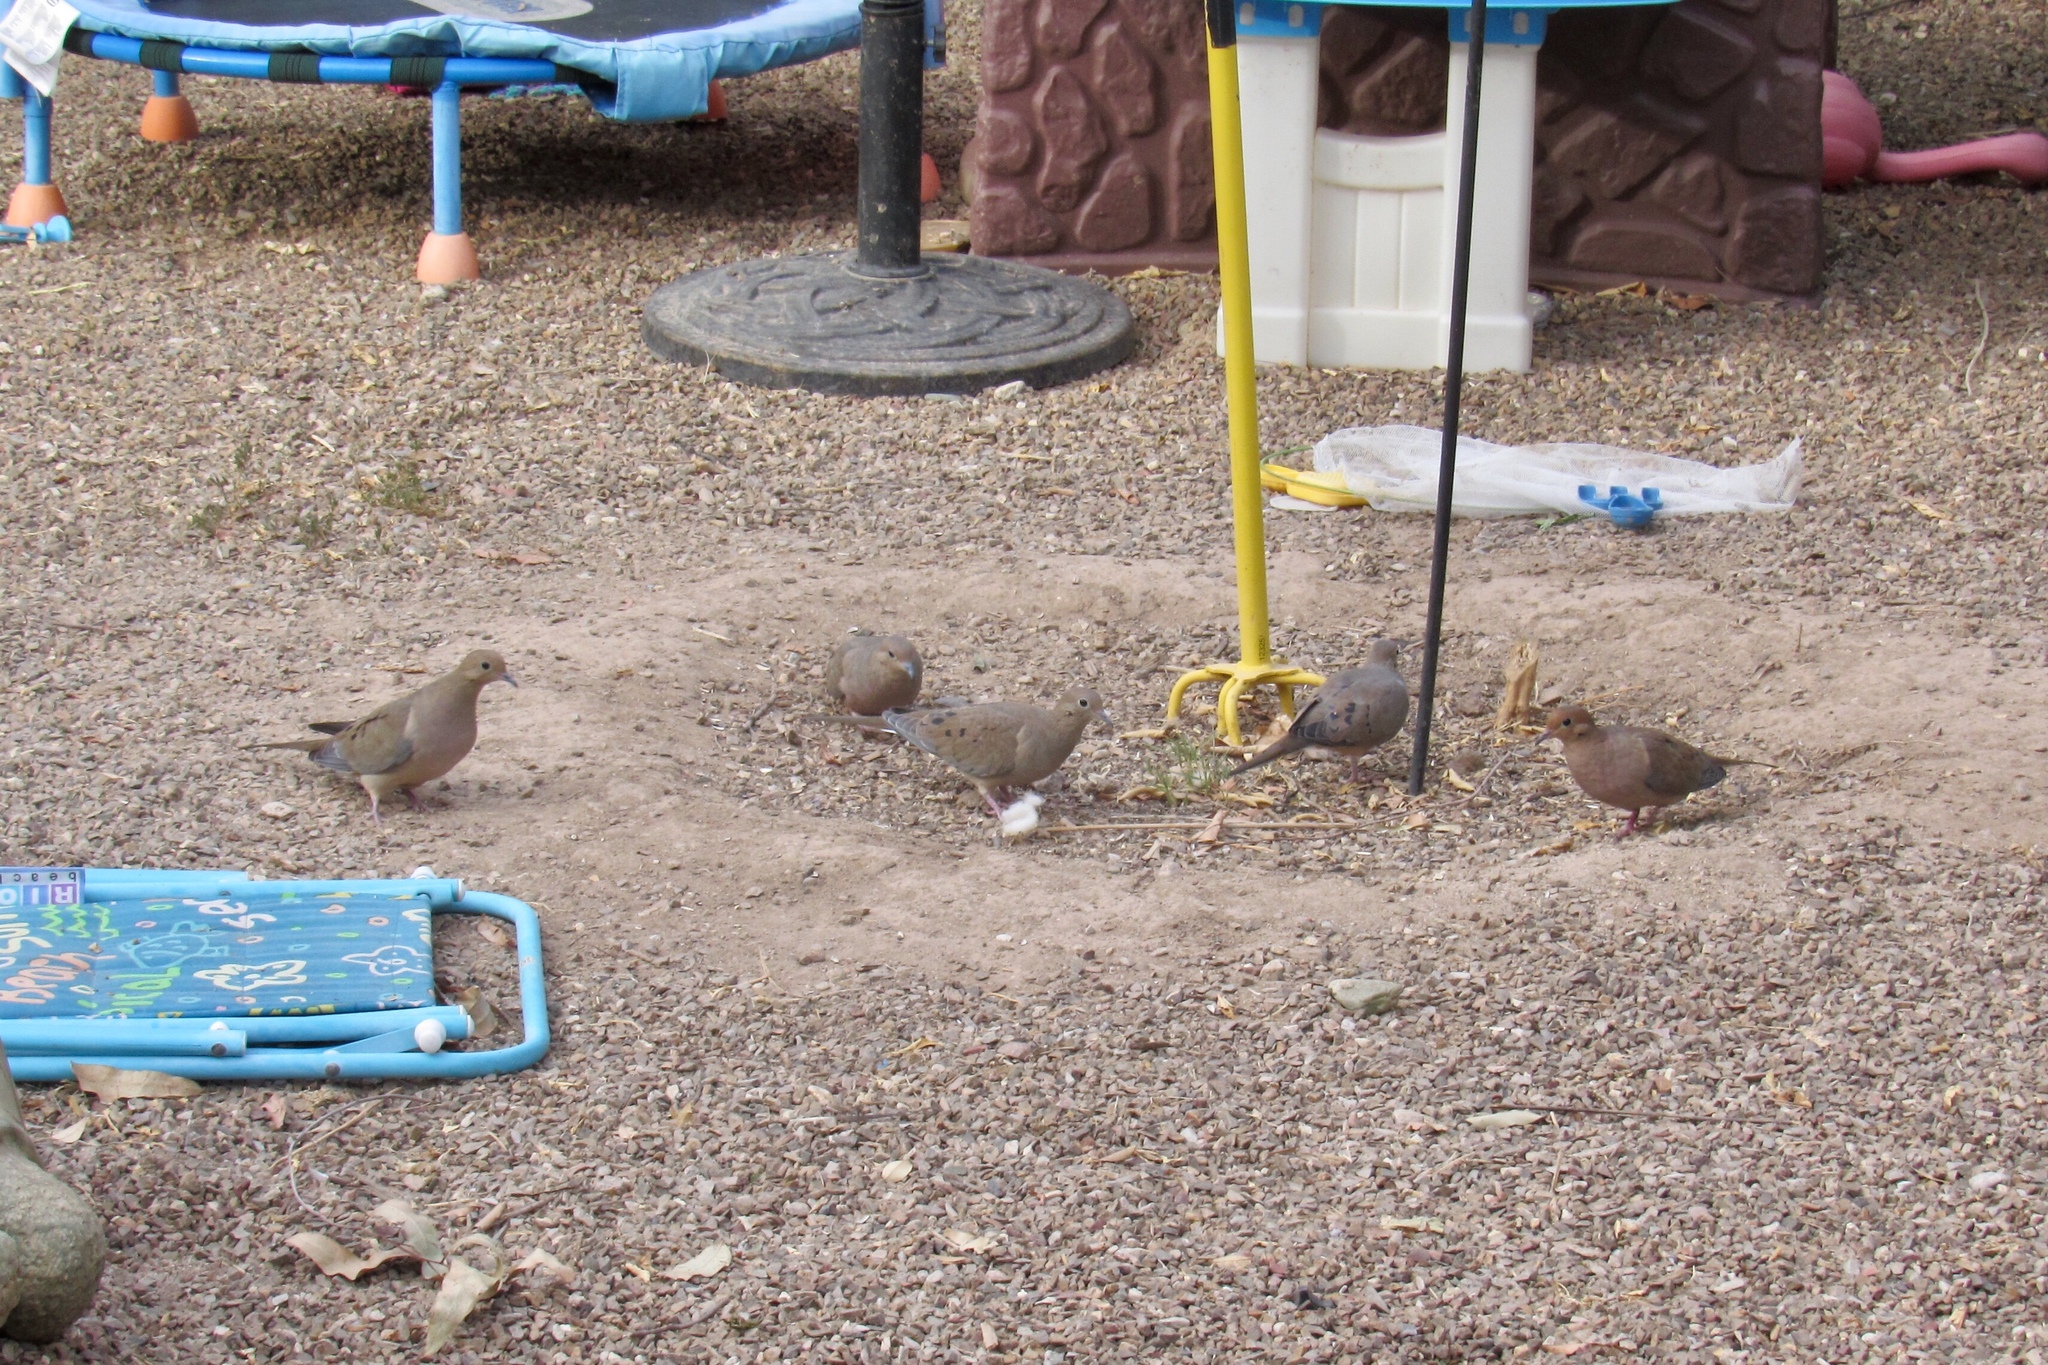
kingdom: Animalia
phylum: Chordata
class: Aves
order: Columbiformes
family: Columbidae
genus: Zenaida
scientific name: Zenaida macroura
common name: Mourning dove
